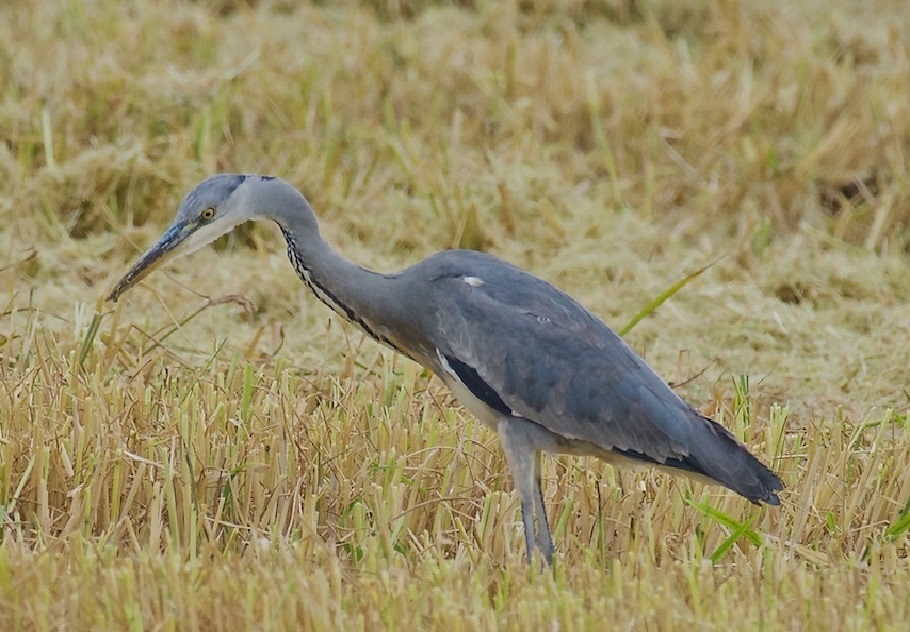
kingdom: Animalia
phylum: Chordata
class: Aves
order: Pelecaniformes
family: Ardeidae
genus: Ardea
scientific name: Ardea cinerea
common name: Grey heron
